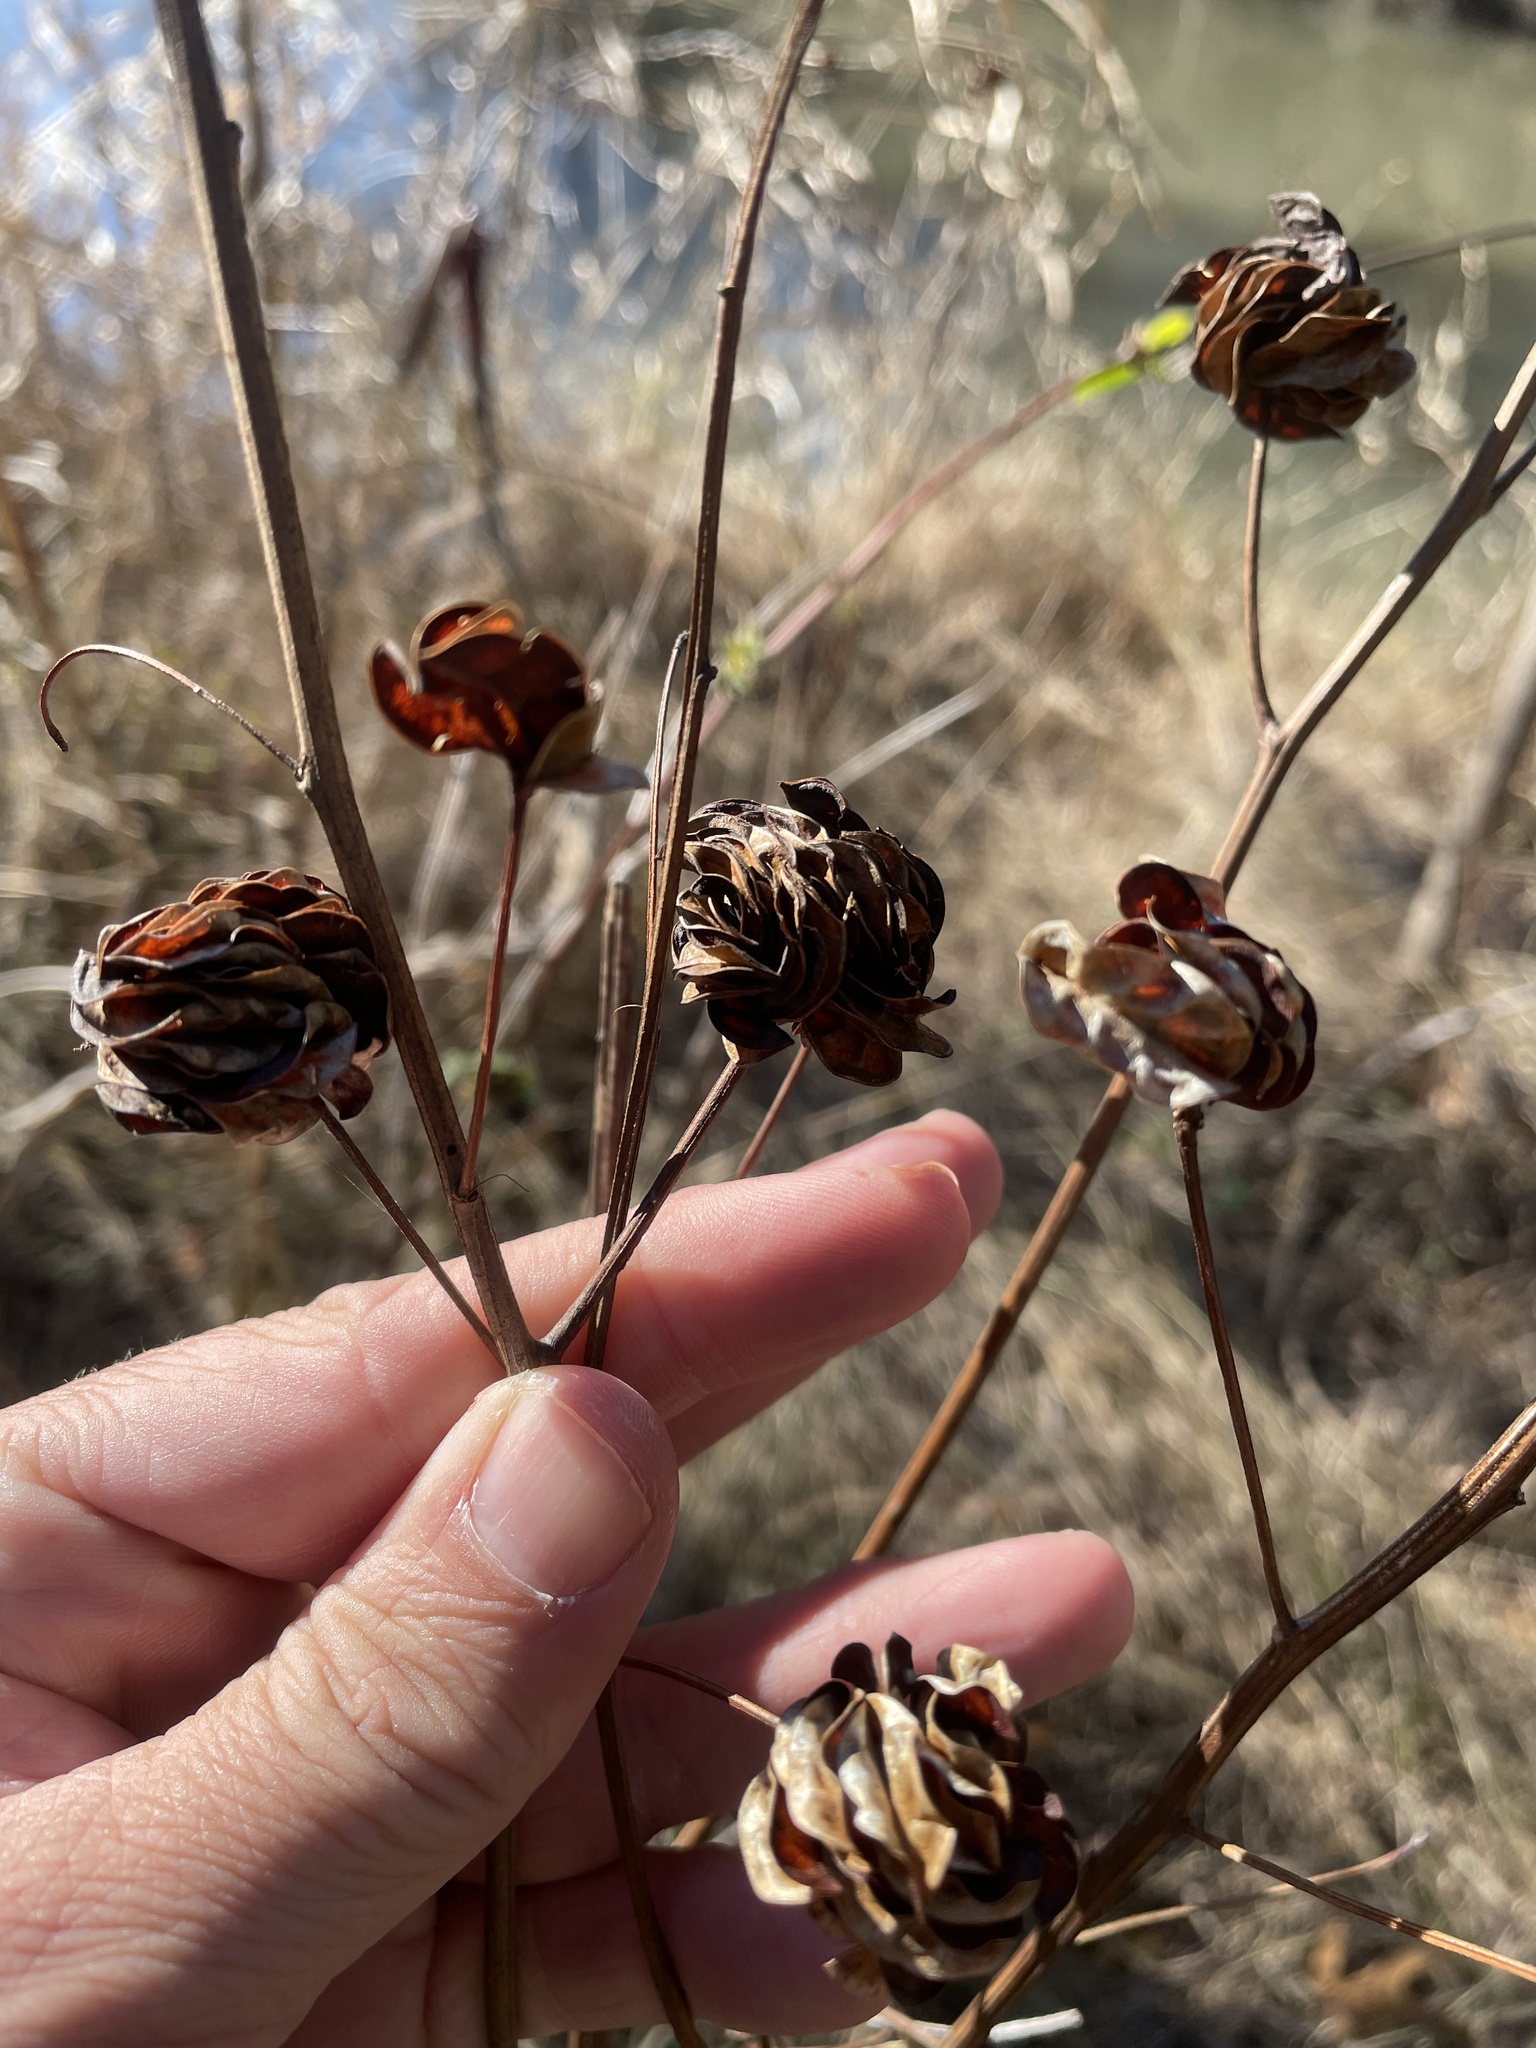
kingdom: Plantae
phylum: Tracheophyta
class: Magnoliopsida
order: Fabales
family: Fabaceae
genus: Desmanthus
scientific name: Desmanthus illinoensis
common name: Illinois bundle-flower
